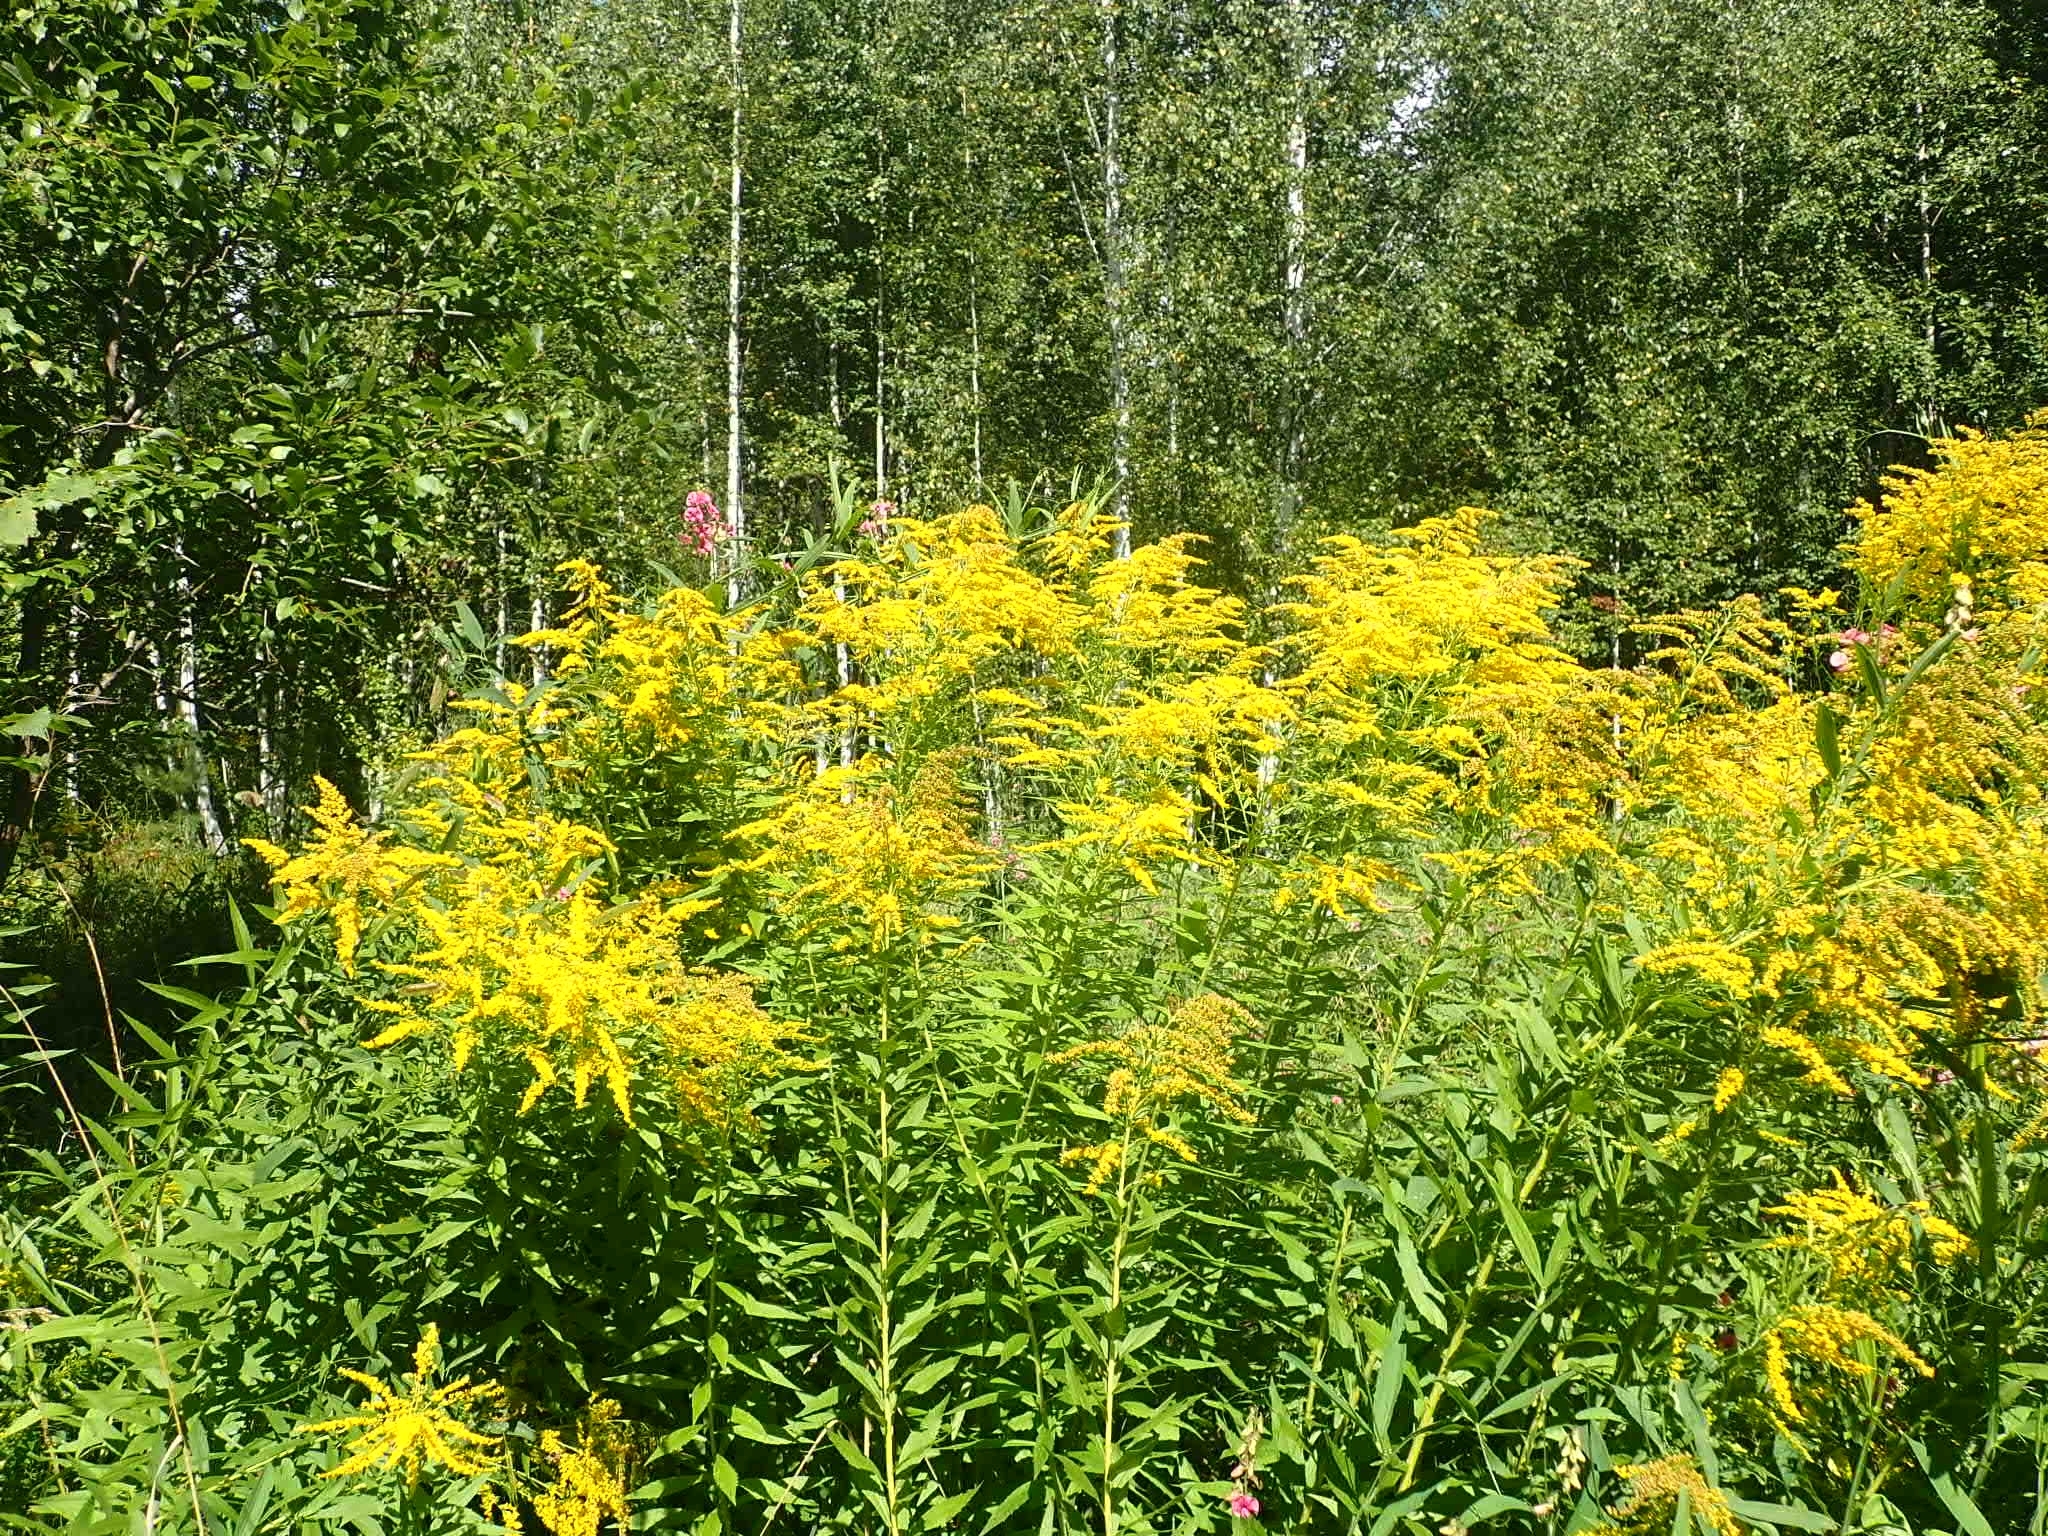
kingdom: Plantae
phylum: Tracheophyta
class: Magnoliopsida
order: Asterales
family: Asteraceae
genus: Solidago
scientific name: Solidago canadensis
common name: Canada goldenrod
